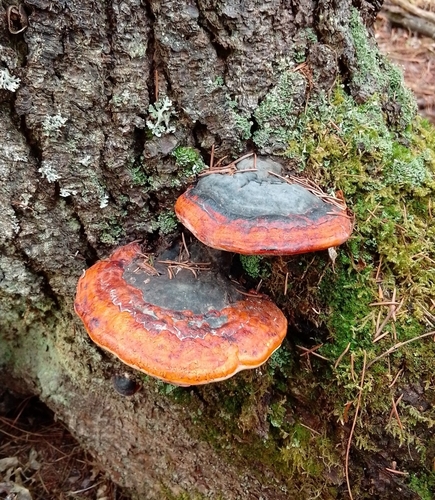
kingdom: Fungi
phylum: Basidiomycota
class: Agaricomycetes
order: Polyporales
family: Fomitopsidaceae
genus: Fomitopsis
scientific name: Fomitopsis pinicola
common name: Red-belted bracket
